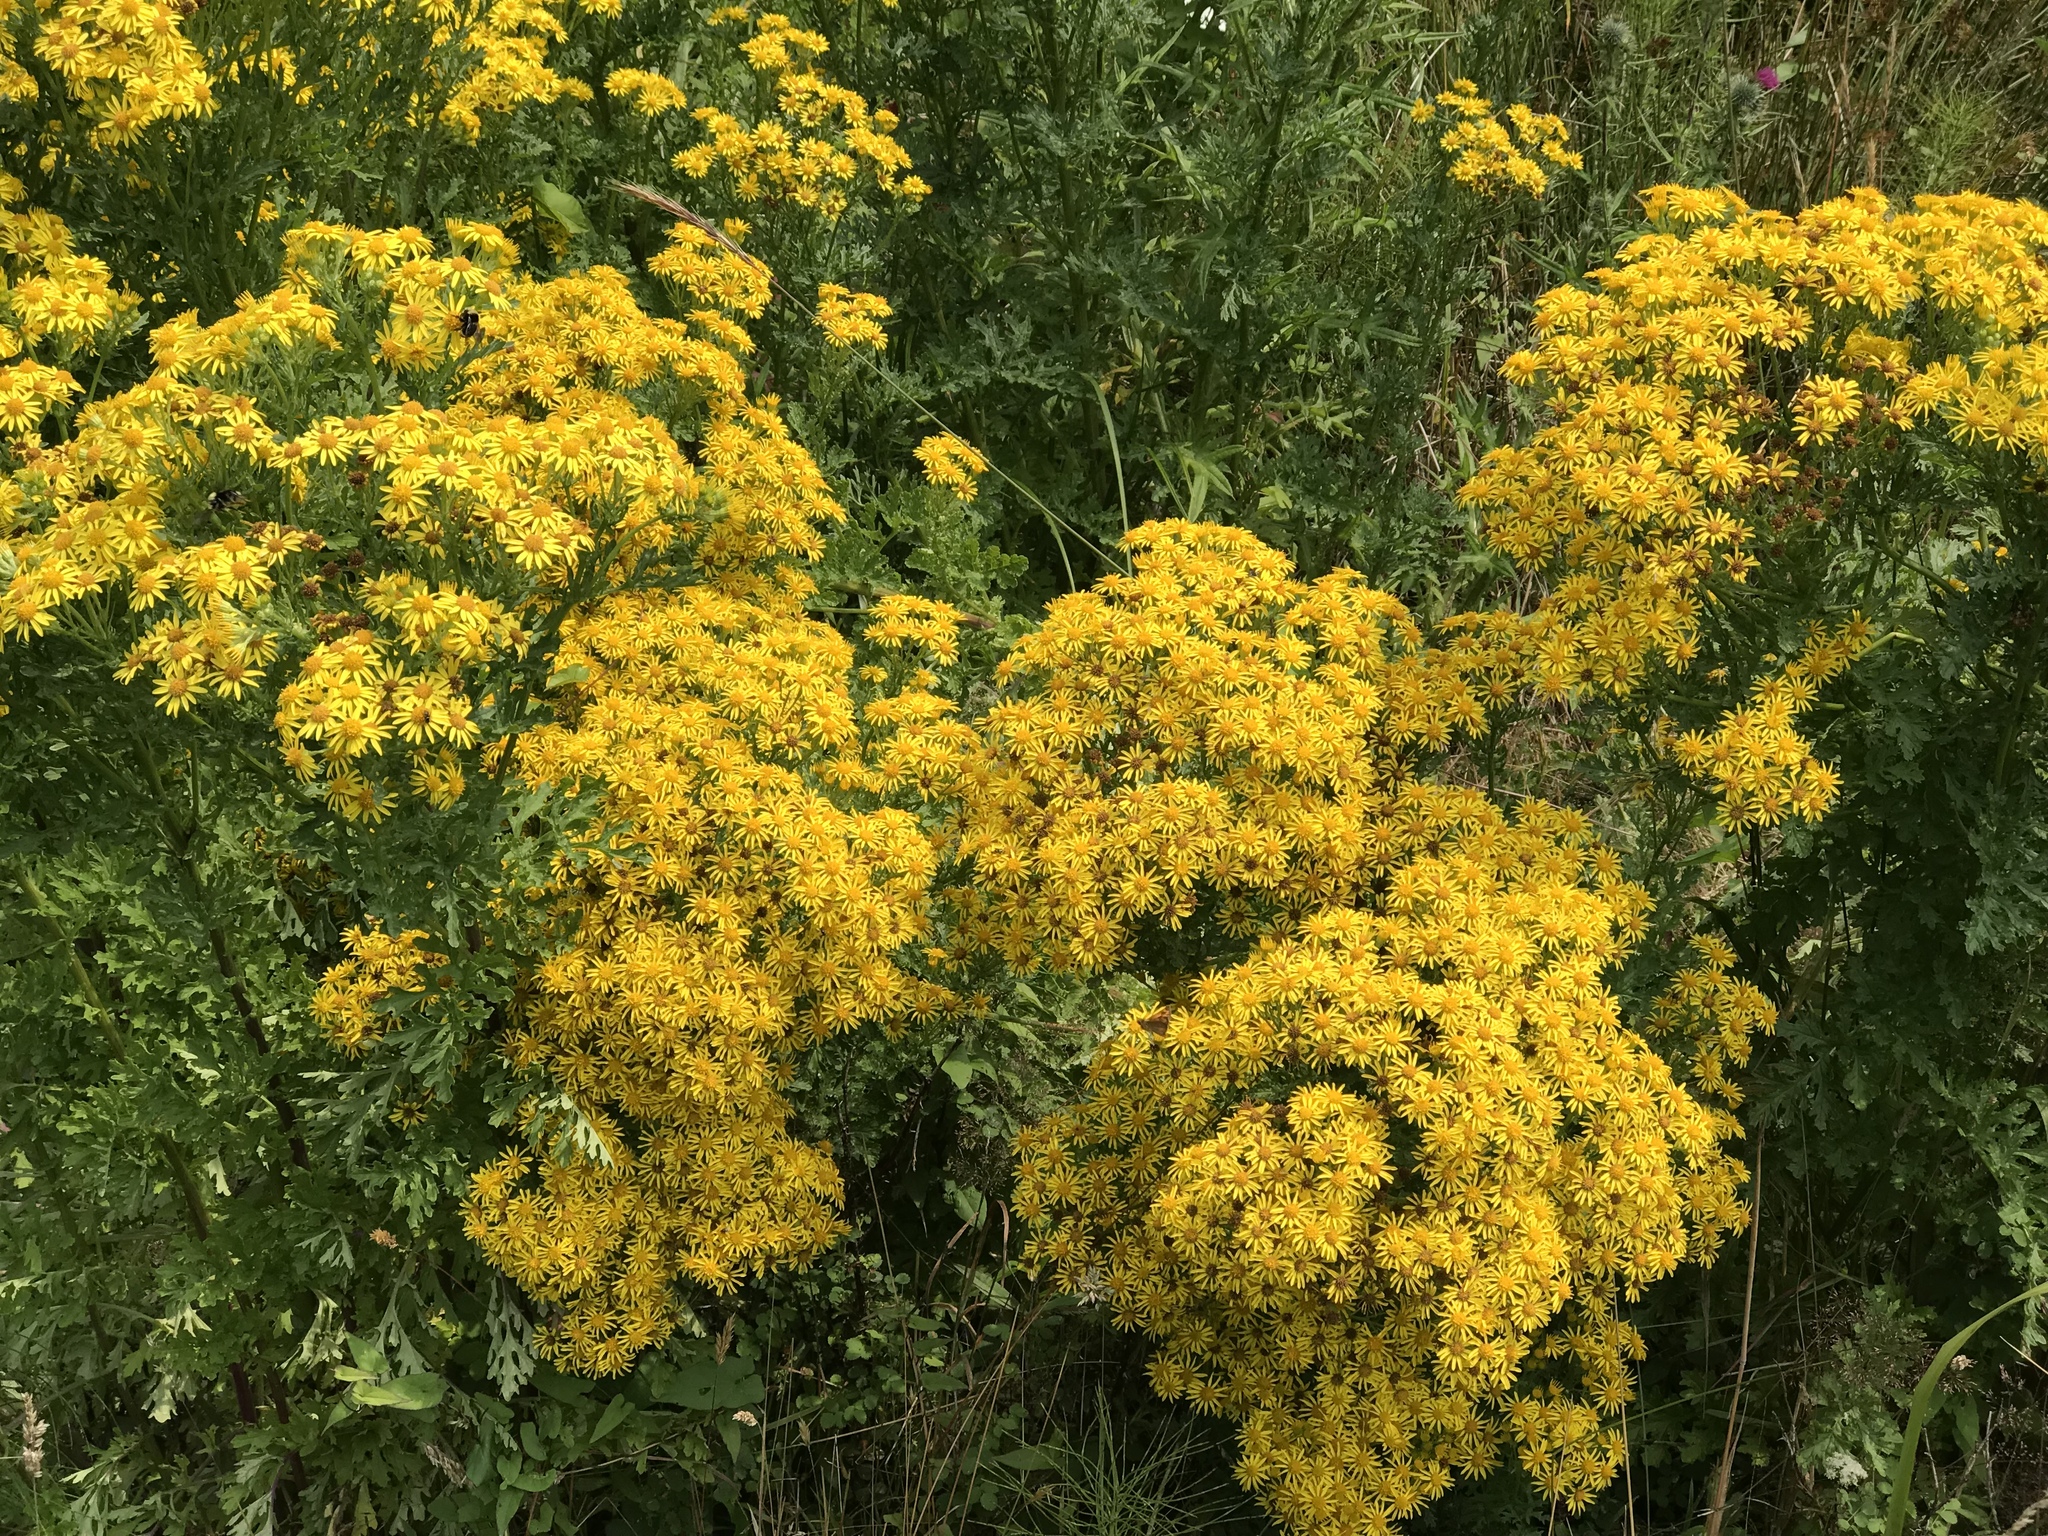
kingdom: Plantae
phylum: Tracheophyta
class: Magnoliopsida
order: Asterales
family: Asteraceae
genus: Jacobaea
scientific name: Jacobaea vulgaris
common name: Stinking willie
